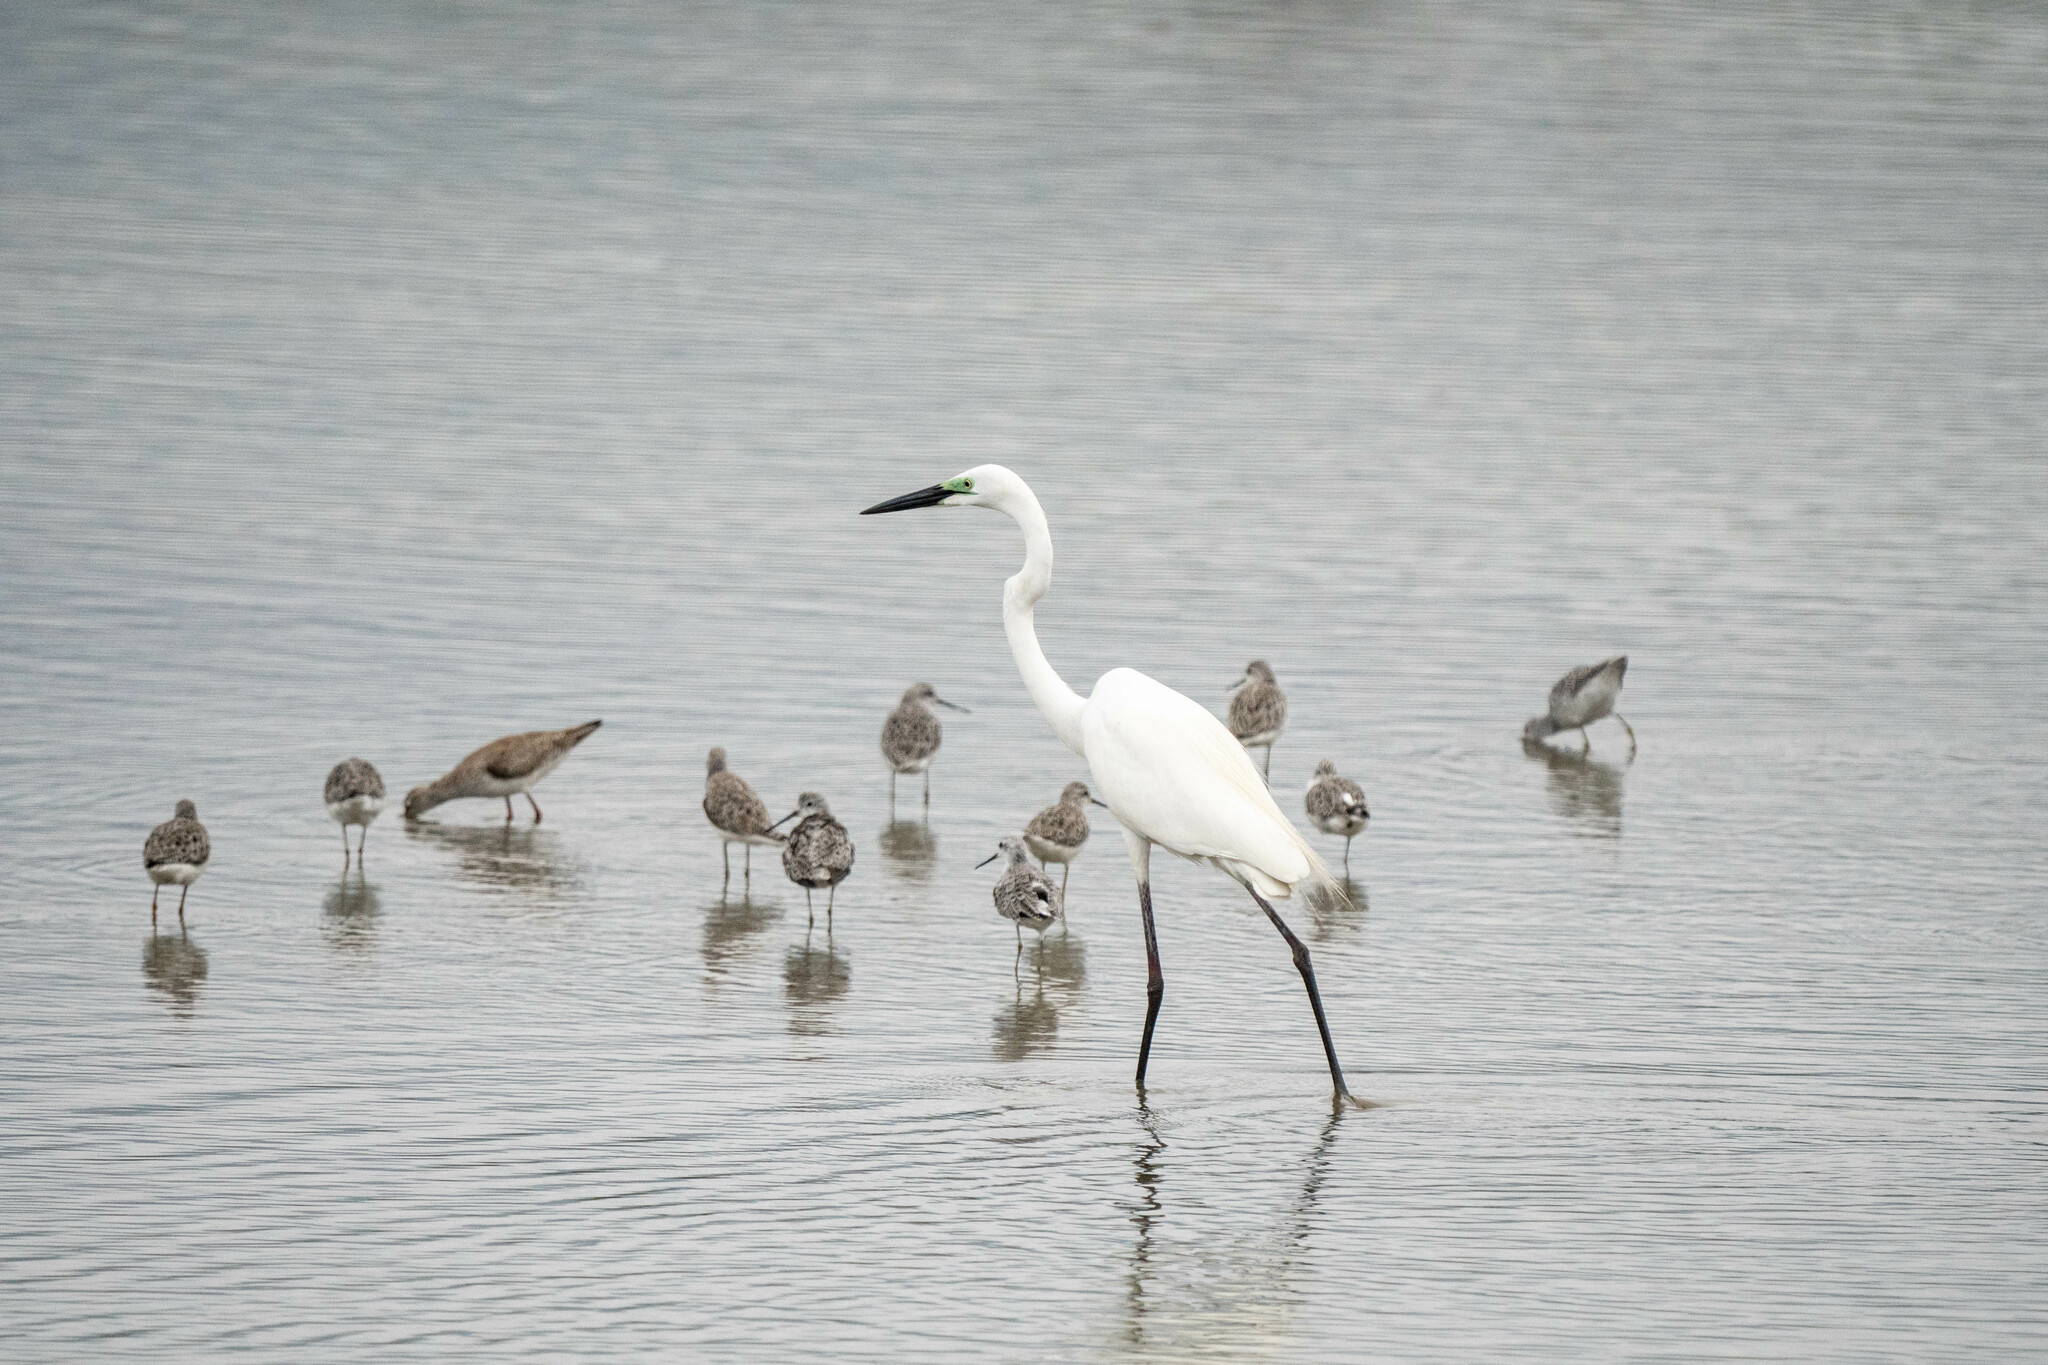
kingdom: Animalia
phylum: Chordata
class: Aves
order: Pelecaniformes
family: Ardeidae
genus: Ardea
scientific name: Ardea alba
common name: Great egret
